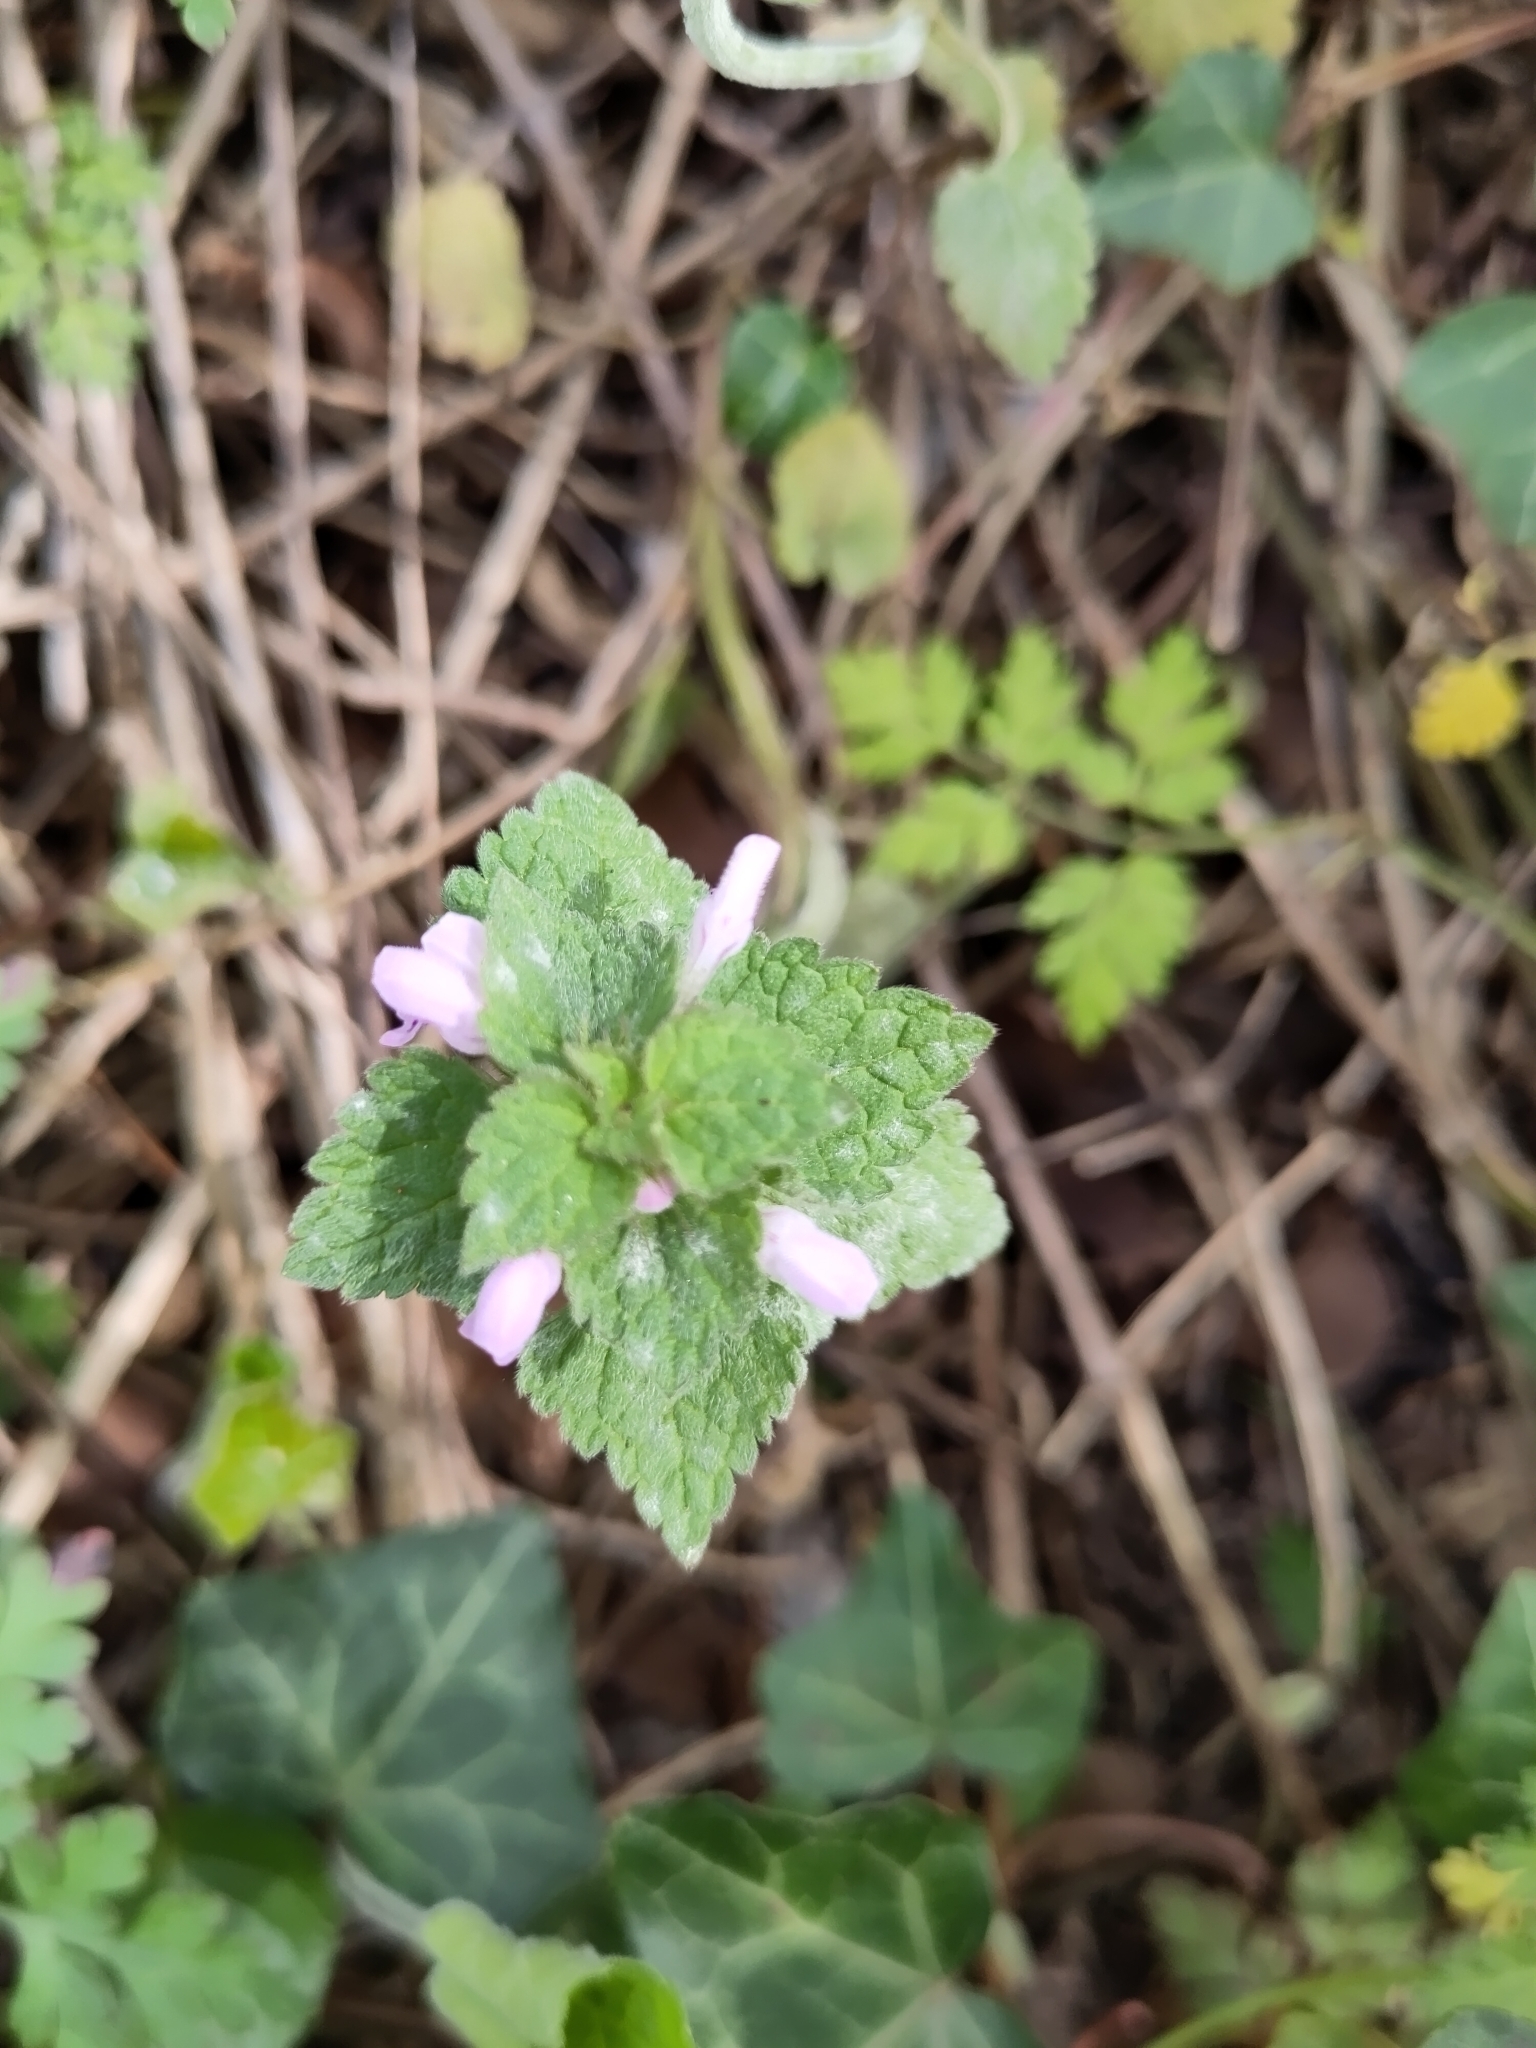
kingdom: Plantae
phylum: Tracheophyta
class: Magnoliopsida
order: Lamiales
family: Lamiaceae
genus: Lamium
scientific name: Lamium purpureum
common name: Red dead-nettle
